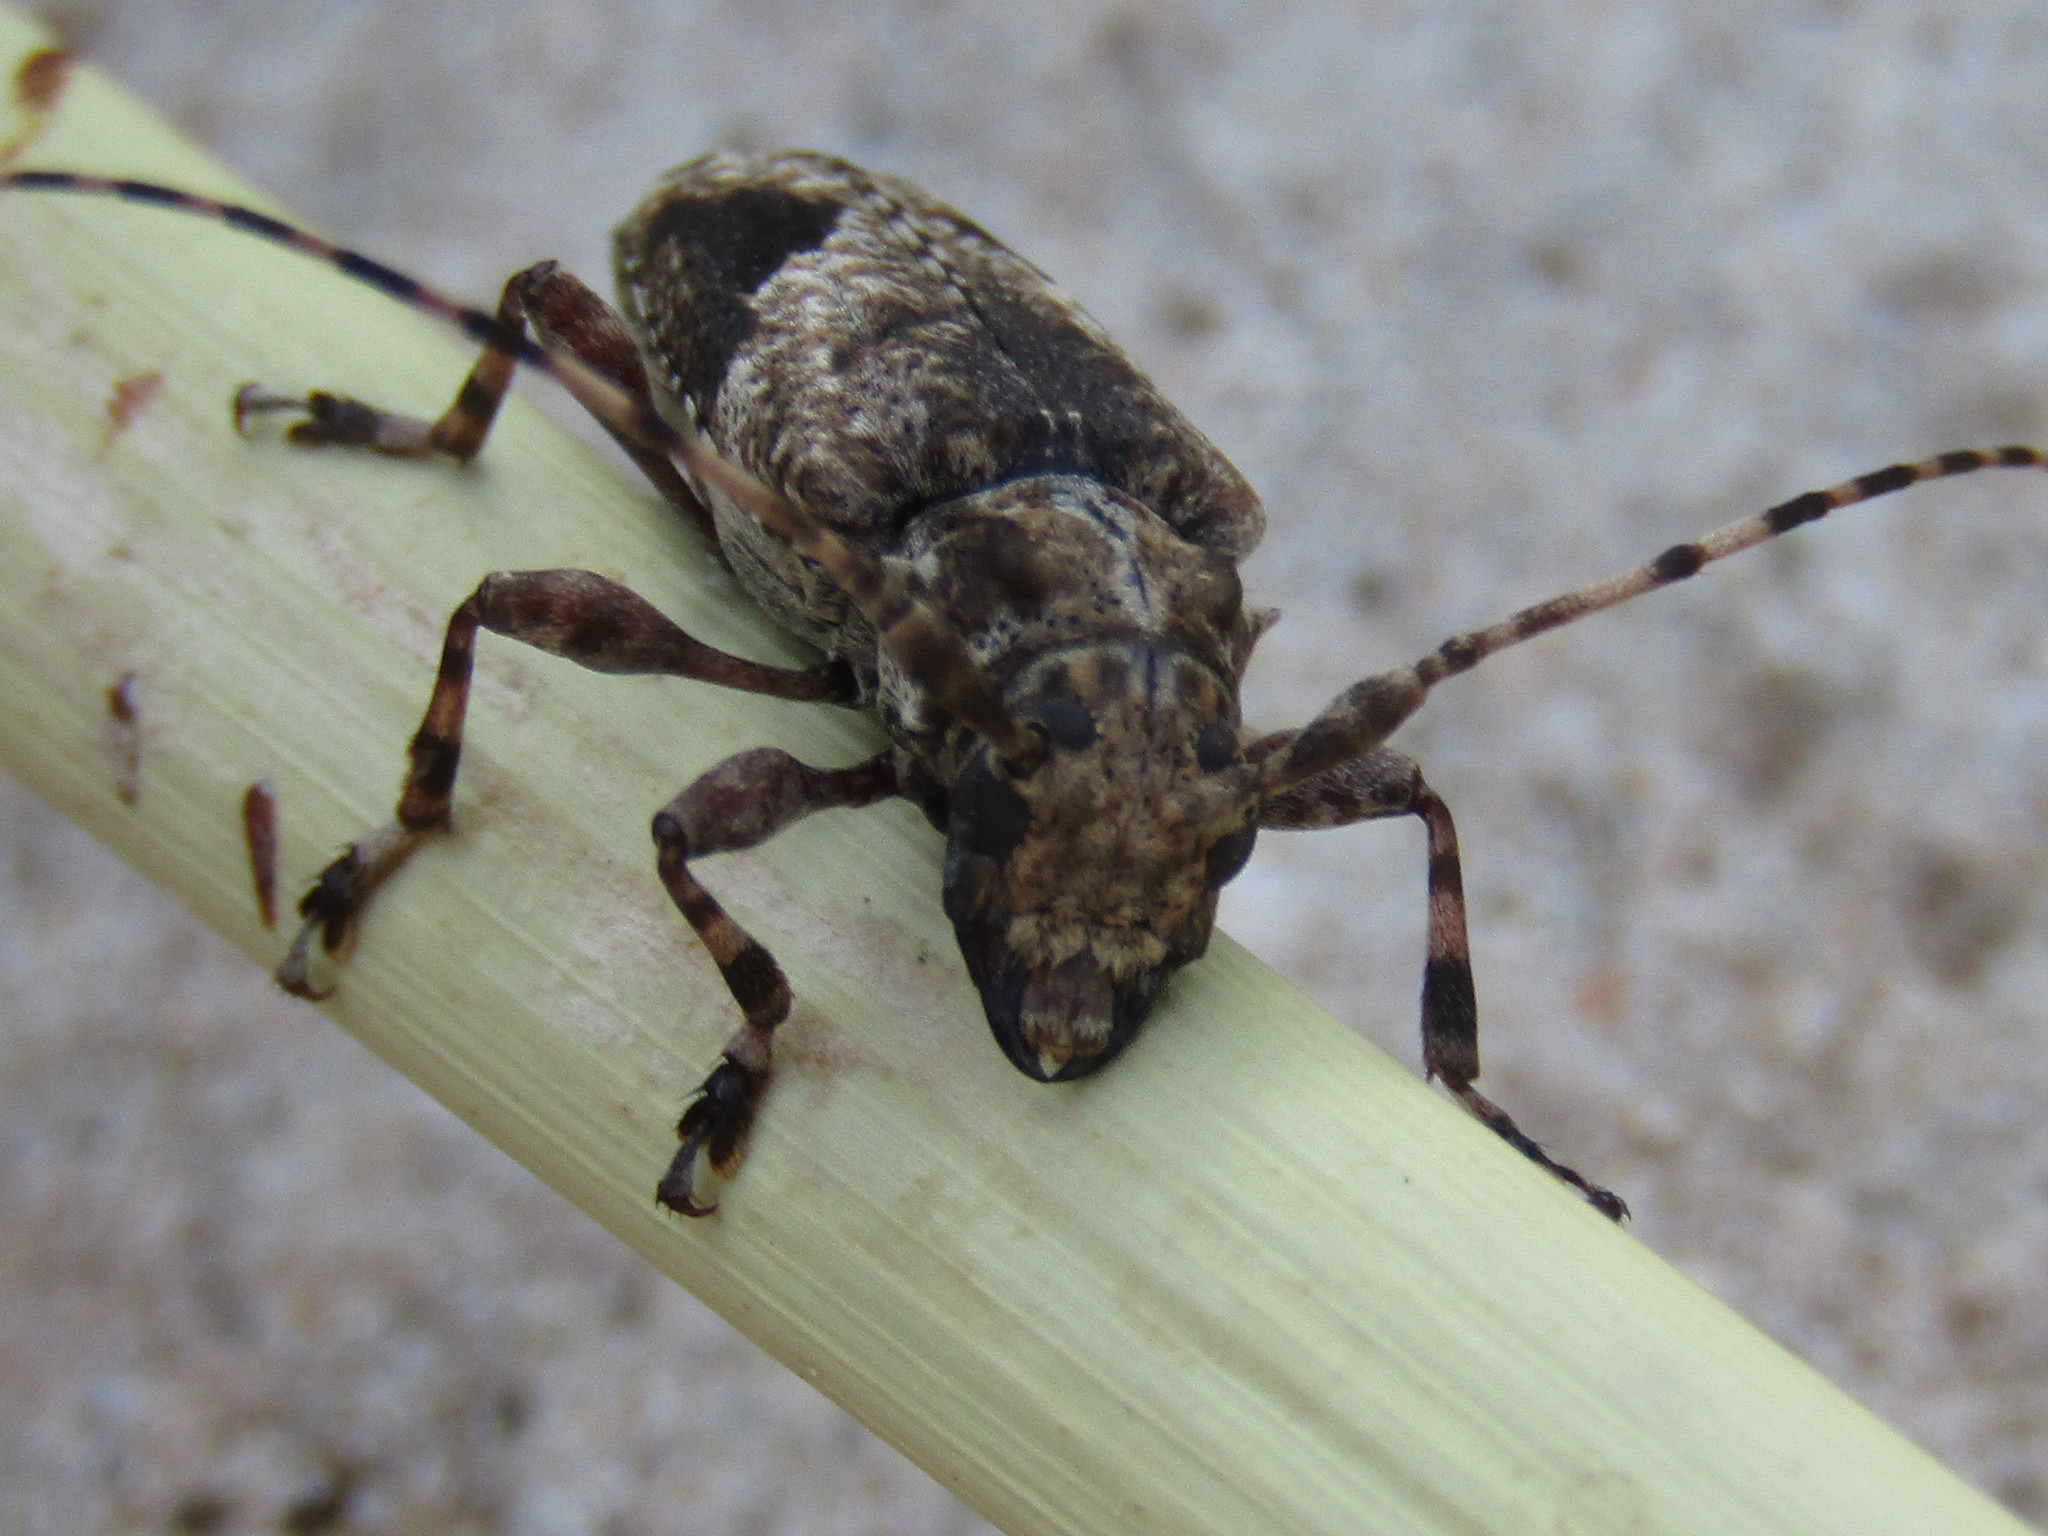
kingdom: Animalia
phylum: Arthropoda
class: Insecta
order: Coleoptera
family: Cerambycidae
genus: Psapharochrus
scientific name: Psapharochrus jaspideus
